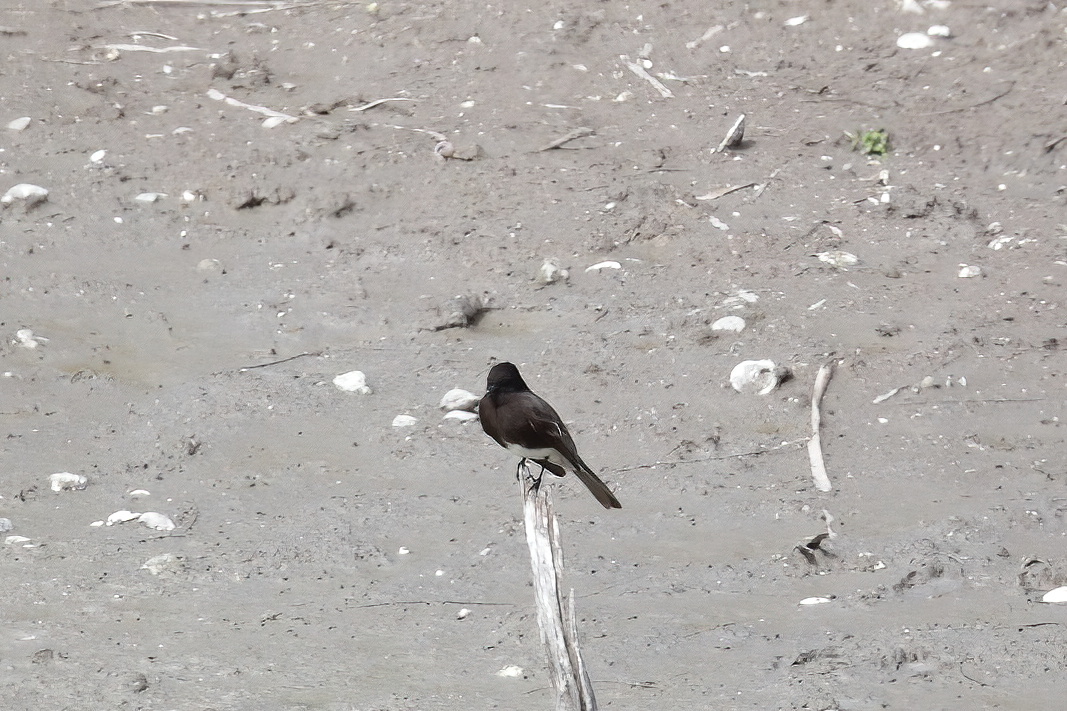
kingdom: Animalia
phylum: Chordata
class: Aves
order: Passeriformes
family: Tyrannidae
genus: Sayornis
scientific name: Sayornis nigricans
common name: Black phoebe
